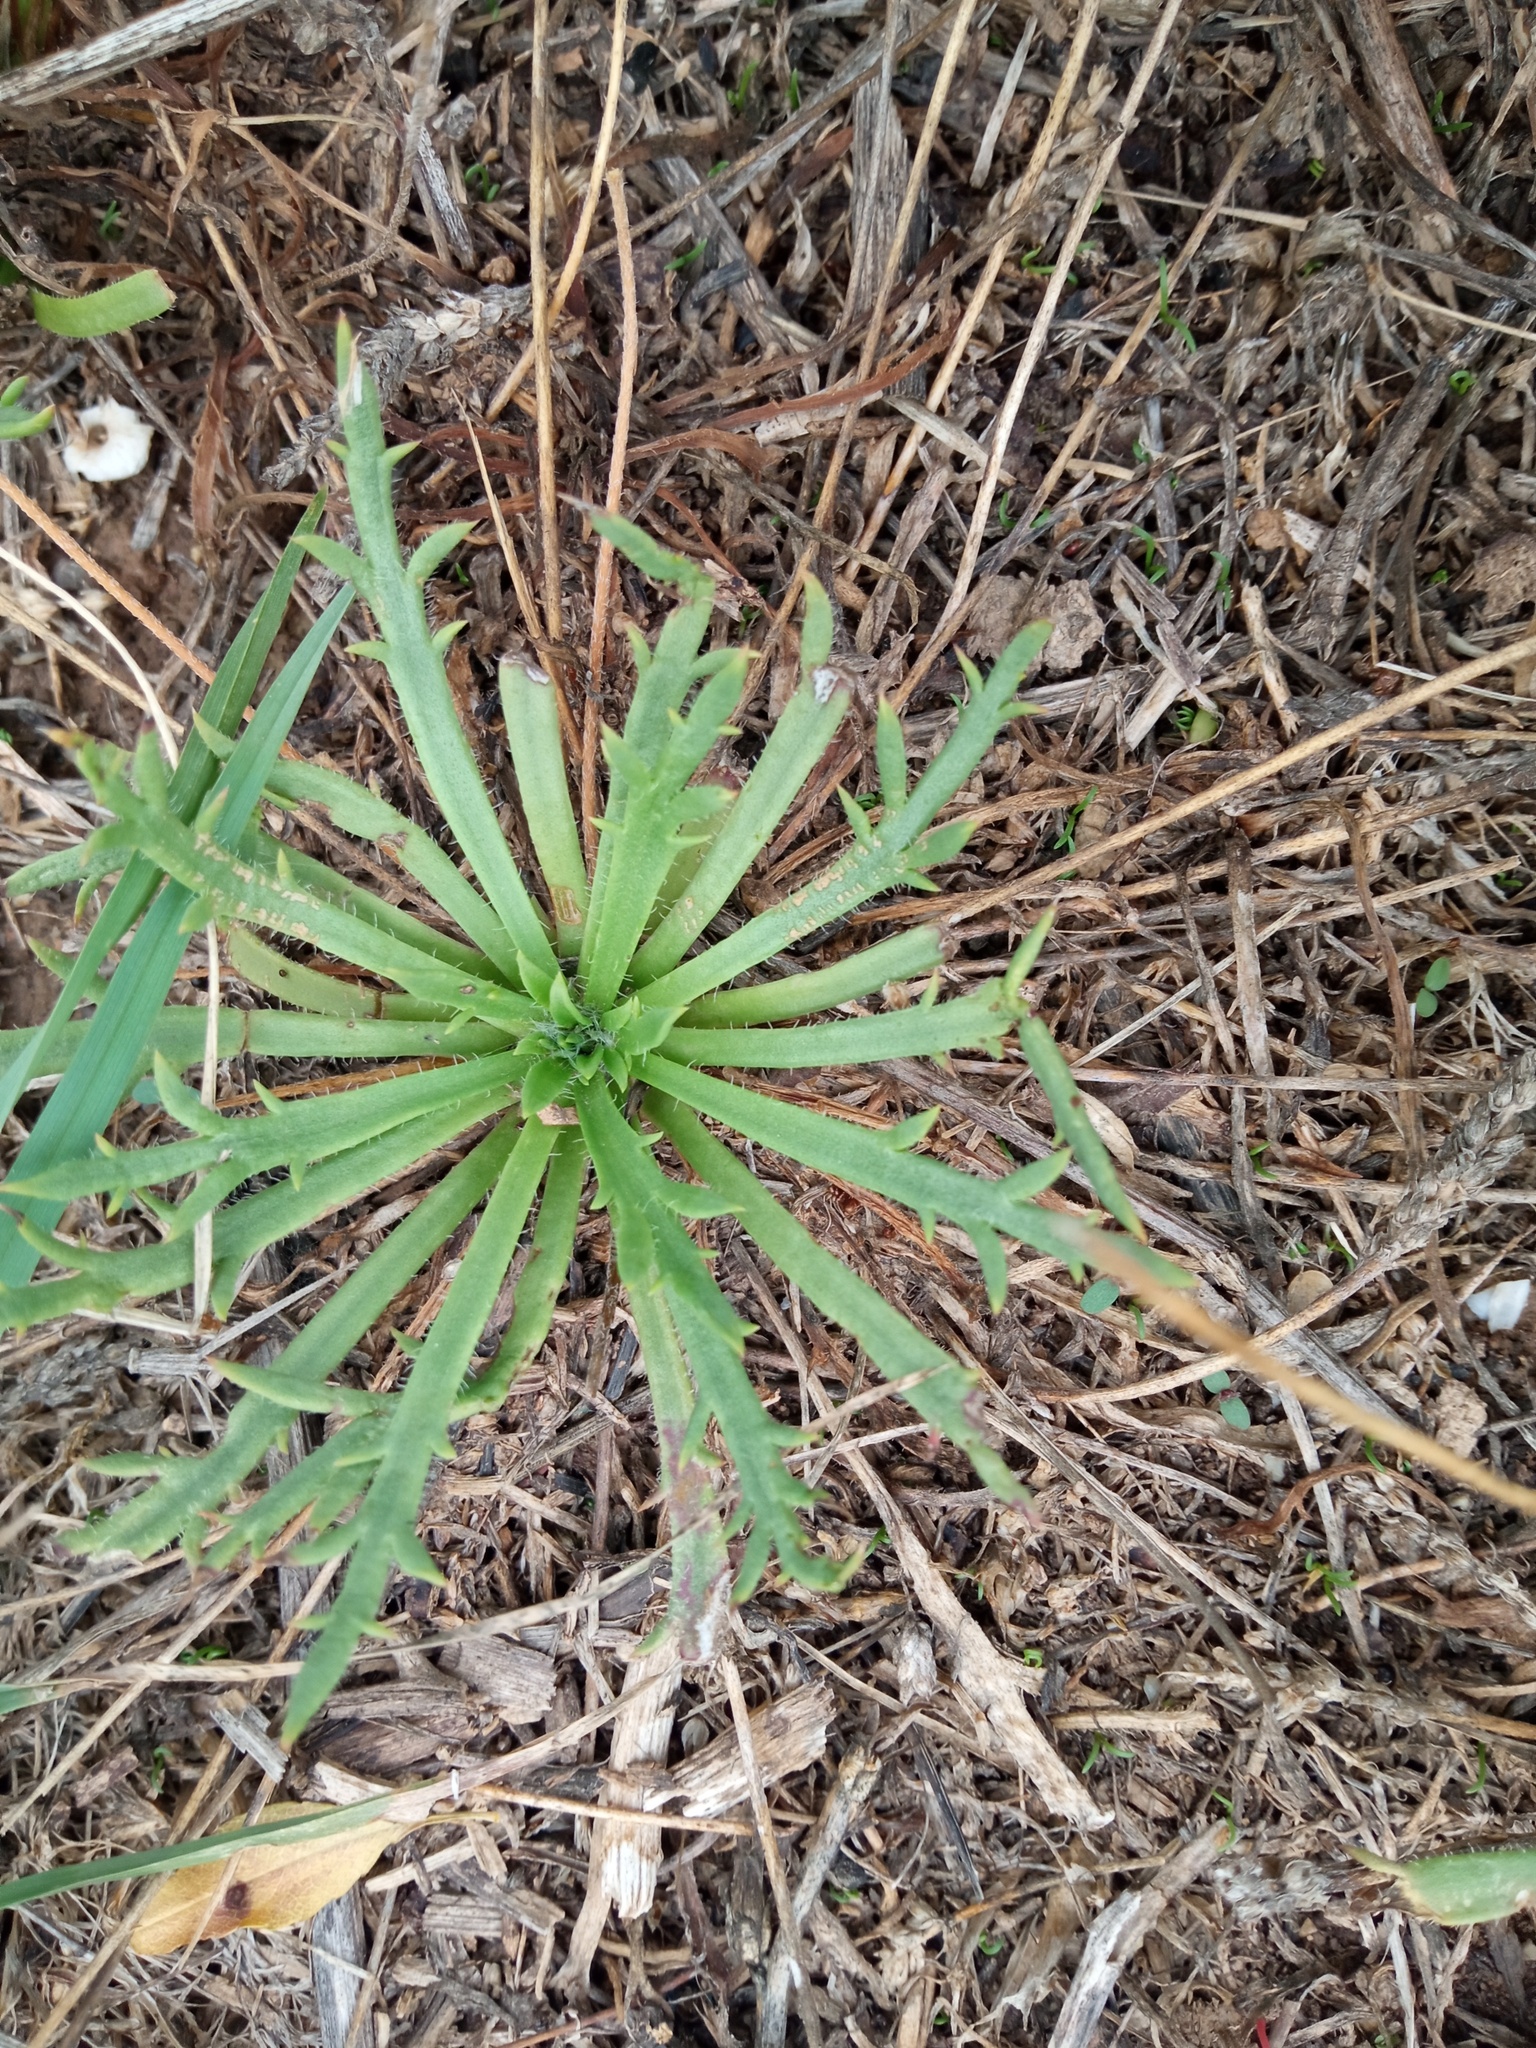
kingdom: Plantae
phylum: Tracheophyta
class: Magnoliopsida
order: Lamiales
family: Plantaginaceae
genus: Plantago
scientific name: Plantago coronopus
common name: Buck's-horn plantain
